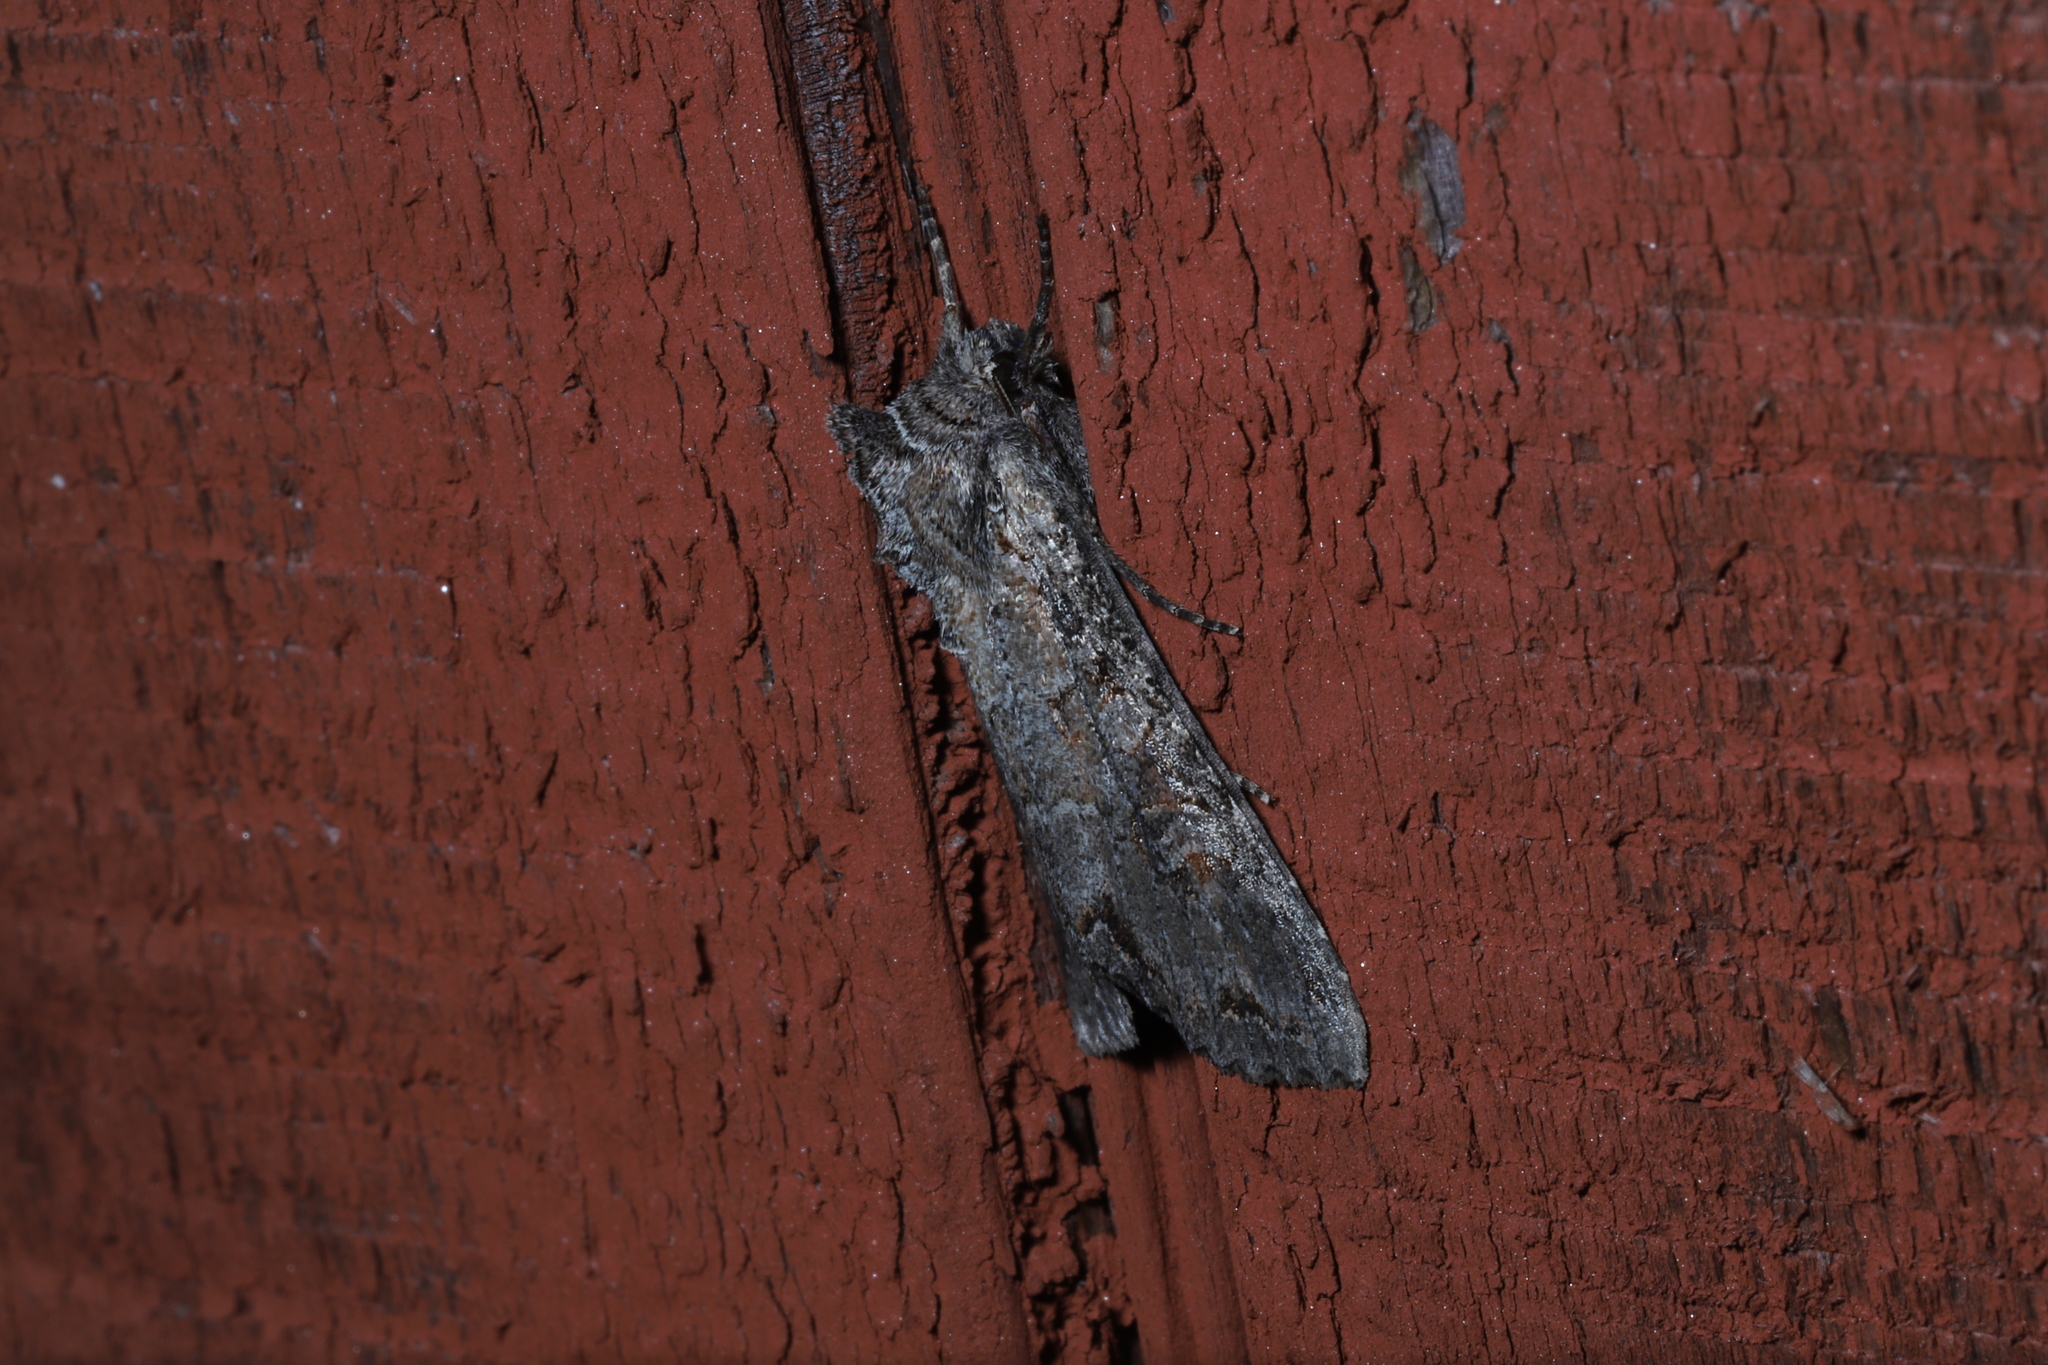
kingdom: Animalia
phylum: Arthropoda
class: Insecta
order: Lepidoptera
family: Noctuidae
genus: Polia
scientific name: Polia purpurissata
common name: Purple arches moth
